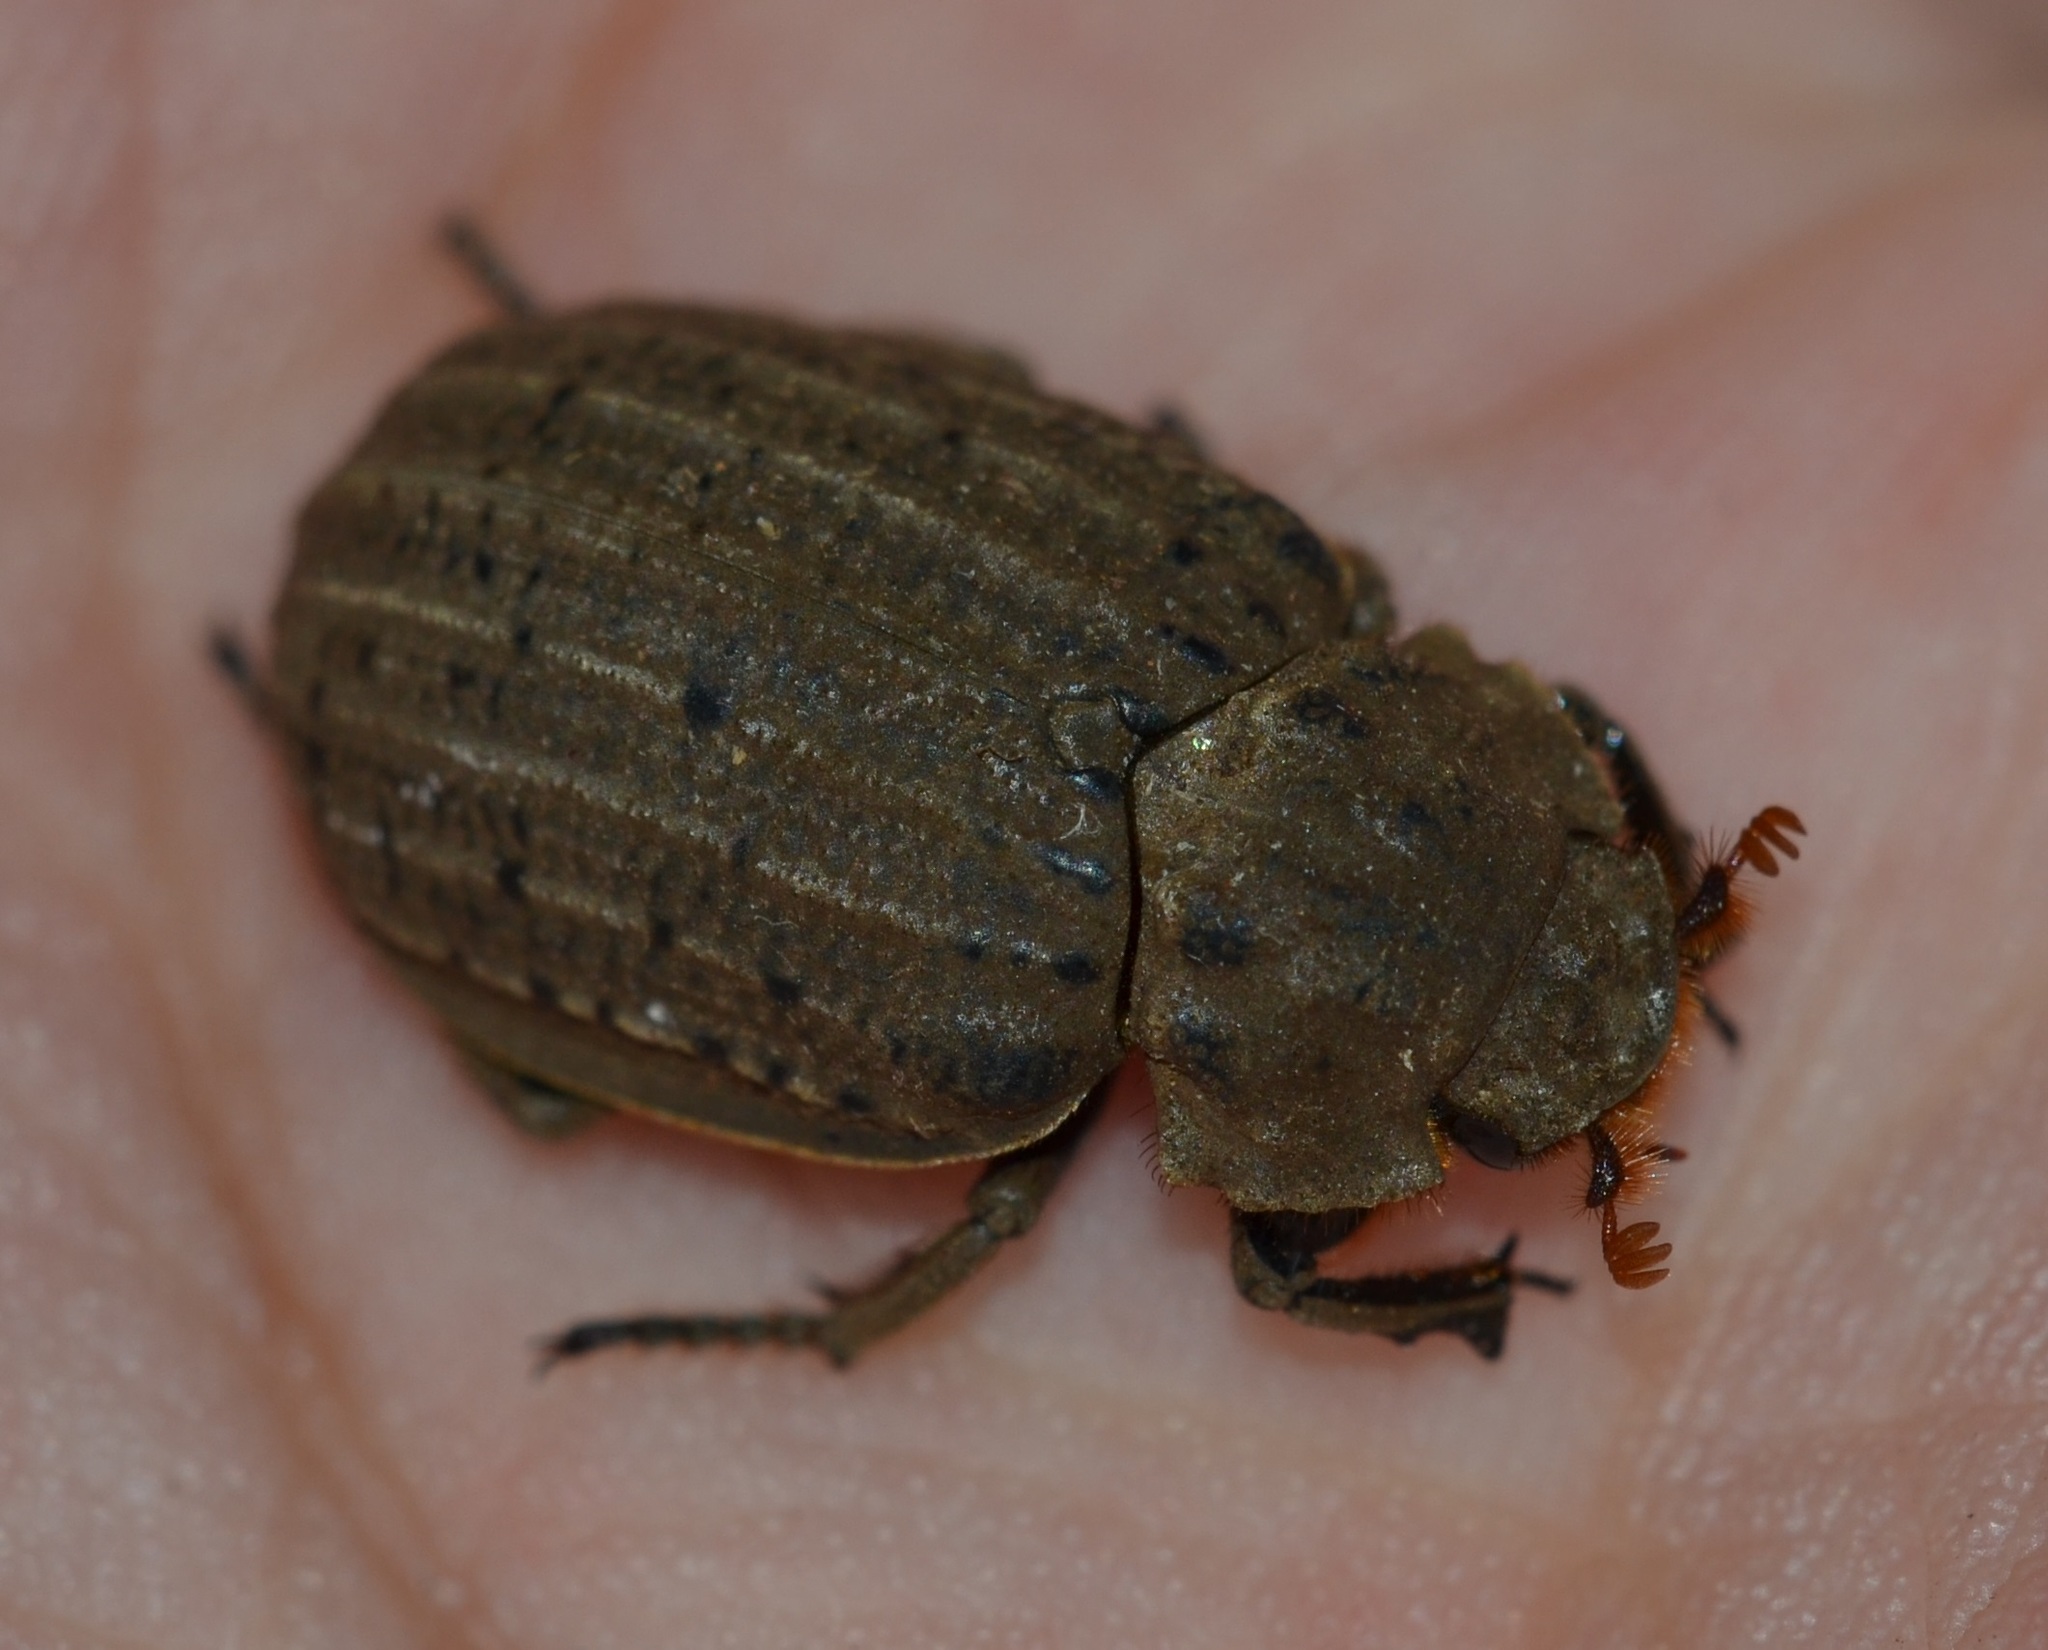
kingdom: Animalia
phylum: Arthropoda
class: Insecta
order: Coleoptera
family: Trogidae
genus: Omorgus
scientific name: Omorgus suberosus
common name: Hide beetle
